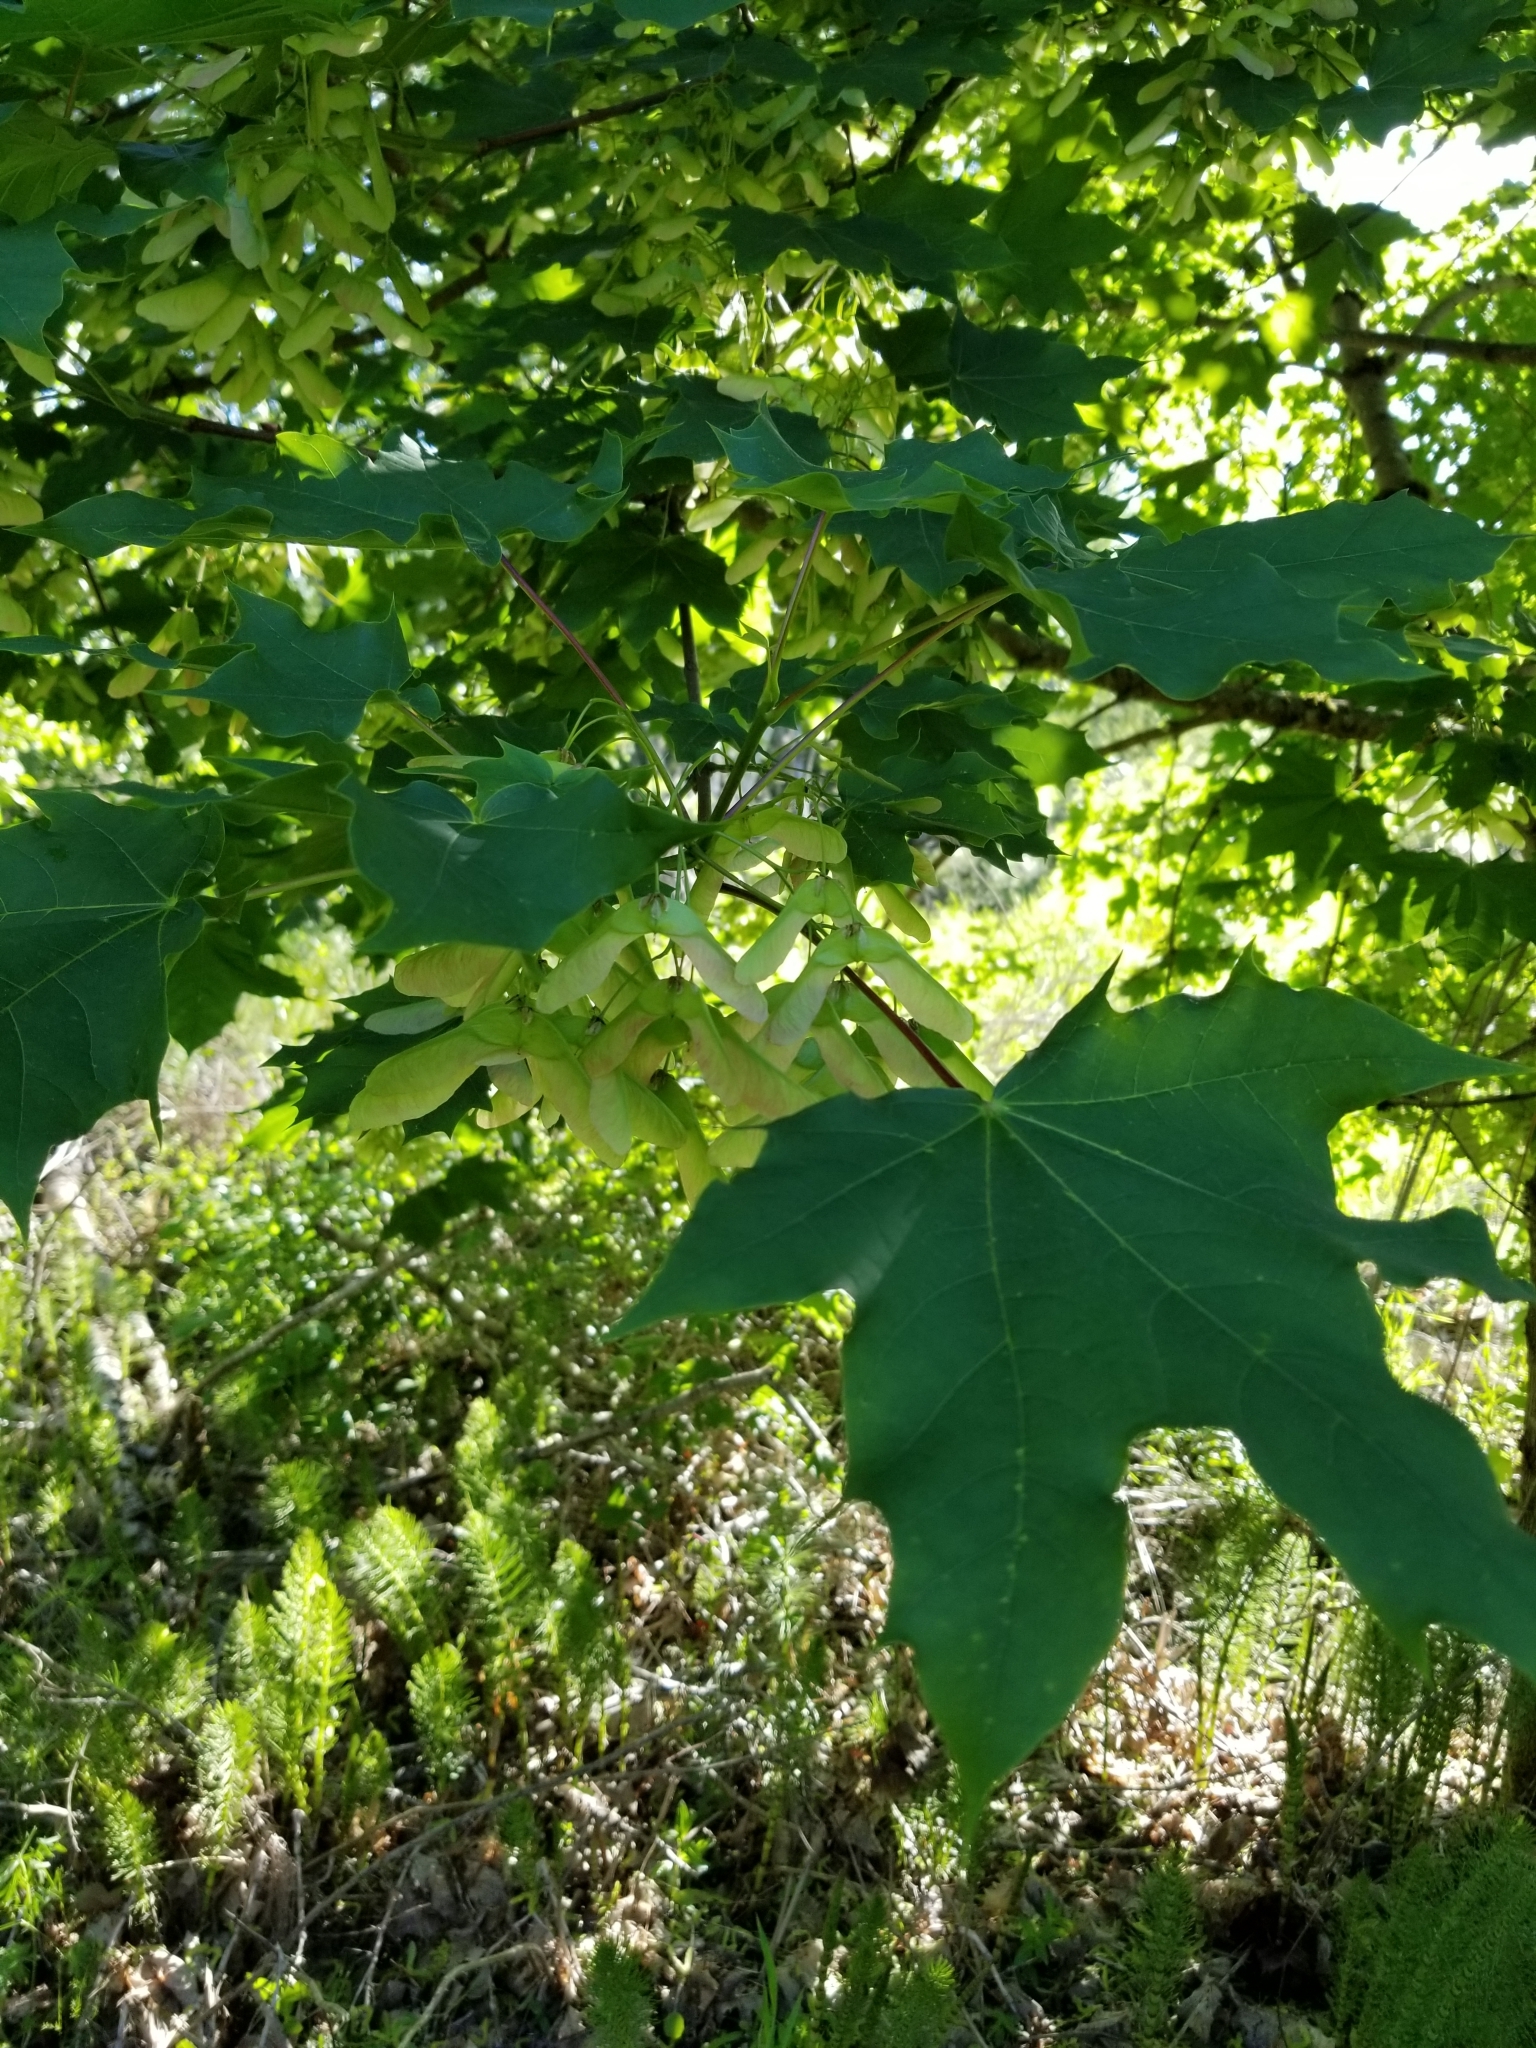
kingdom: Plantae
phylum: Tracheophyta
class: Magnoliopsida
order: Sapindales
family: Sapindaceae
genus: Acer
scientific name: Acer macrophyllum
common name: Oregon maple
